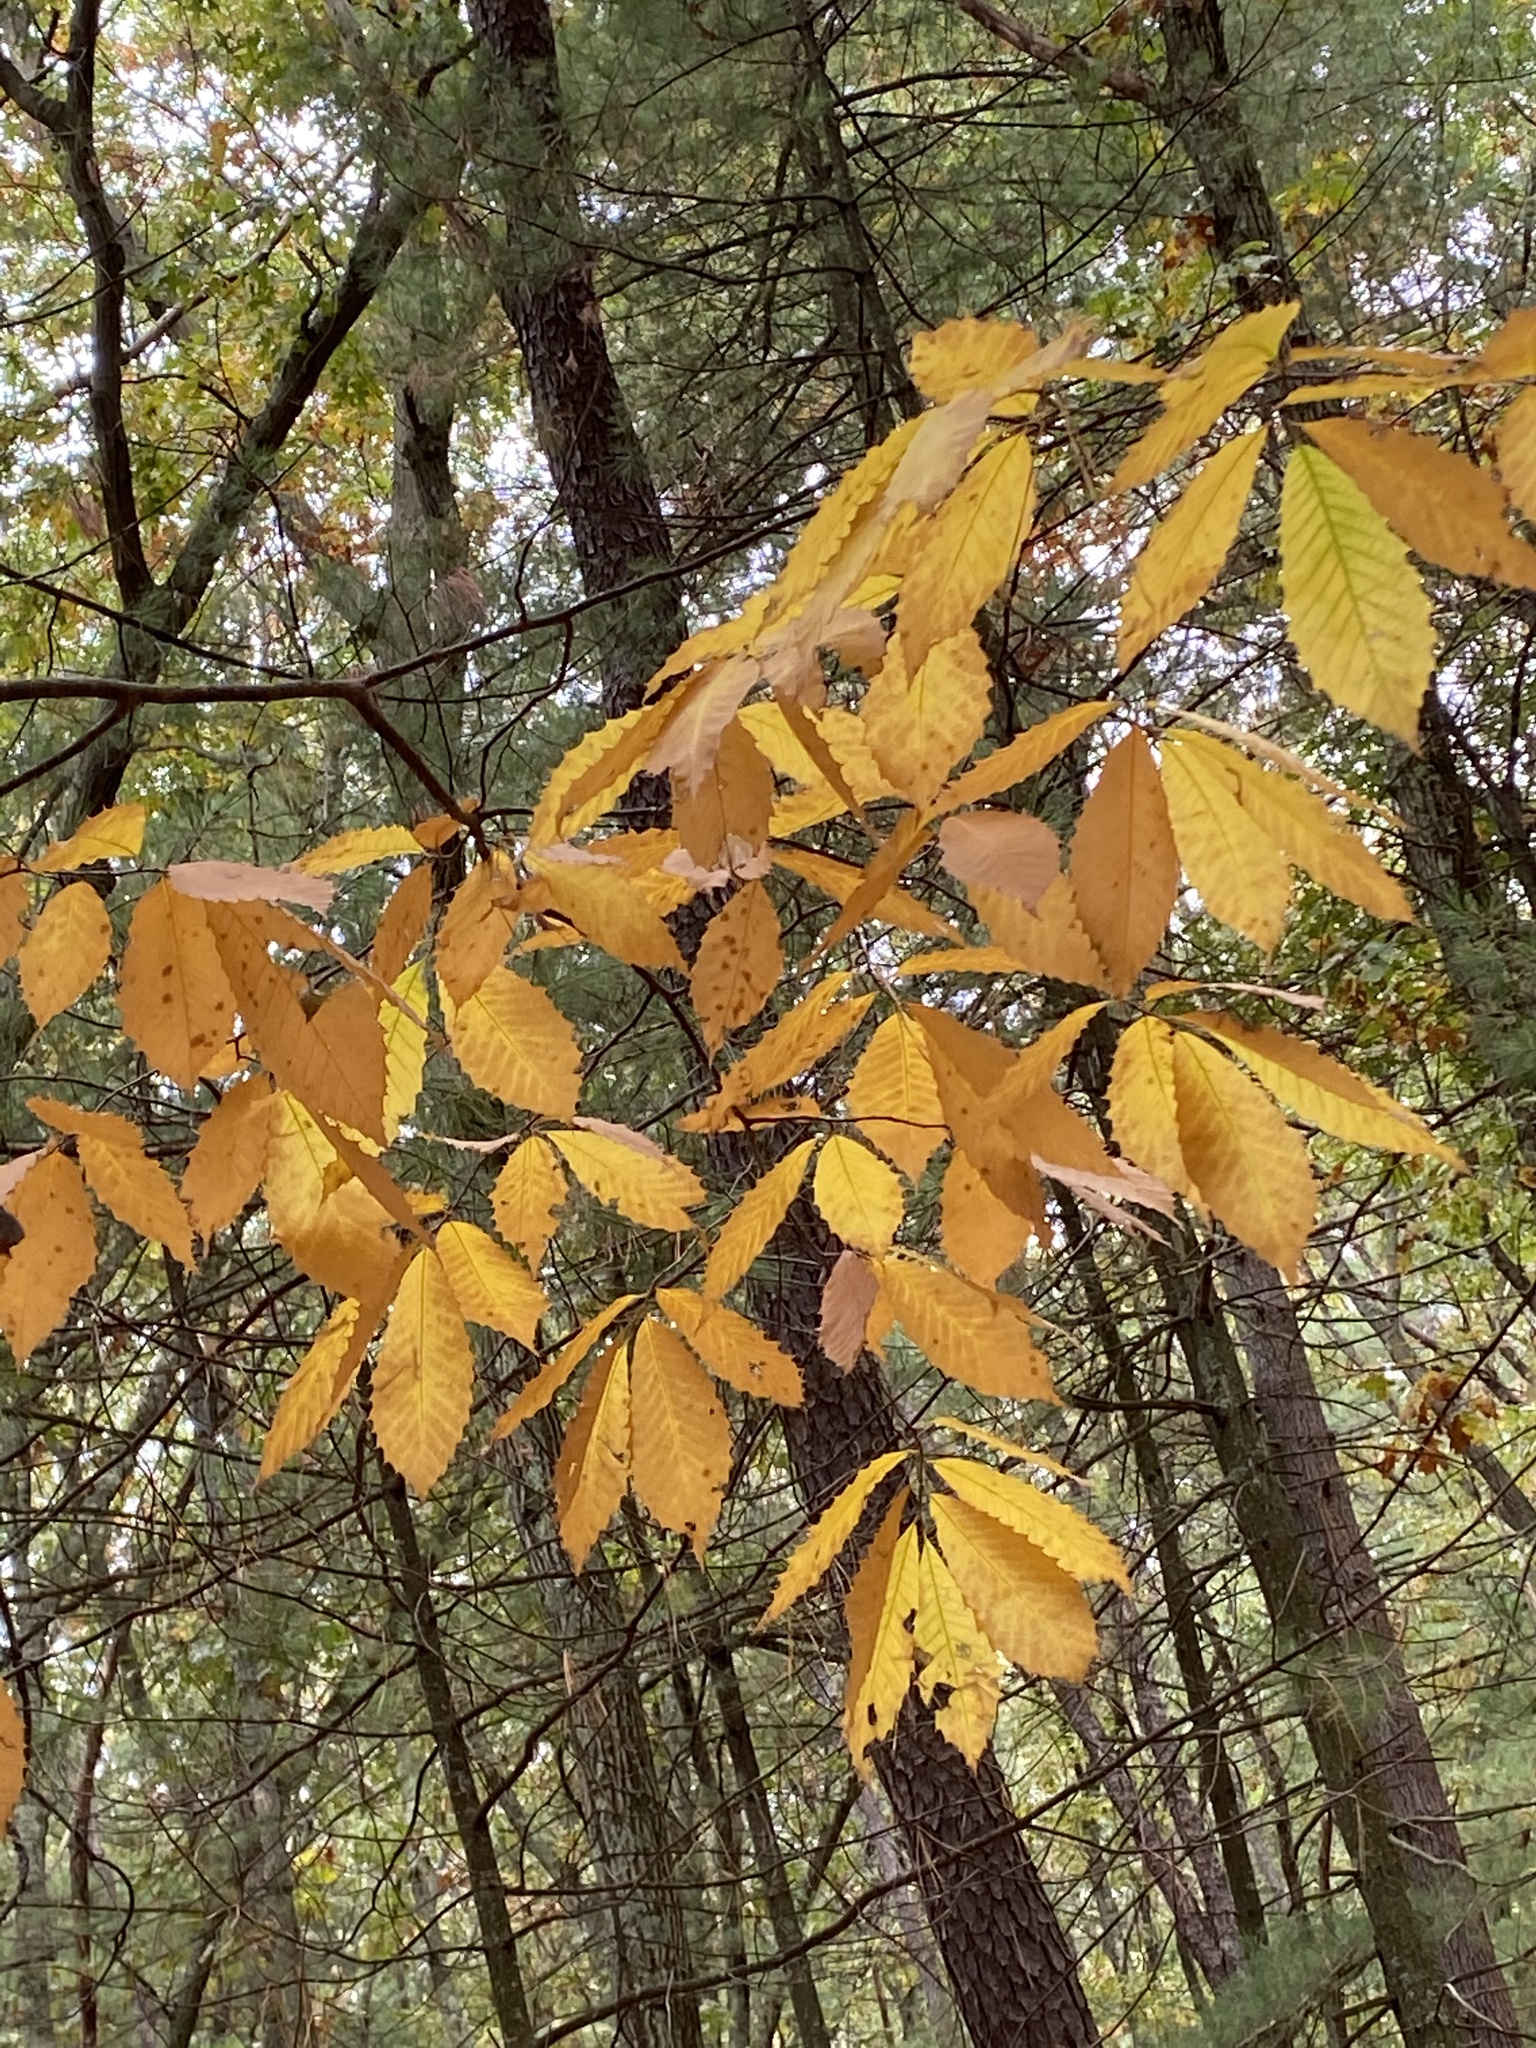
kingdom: Plantae
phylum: Tracheophyta
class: Magnoliopsida
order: Fagales
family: Fagaceae
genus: Castanea
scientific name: Castanea dentata
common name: American chestnut
